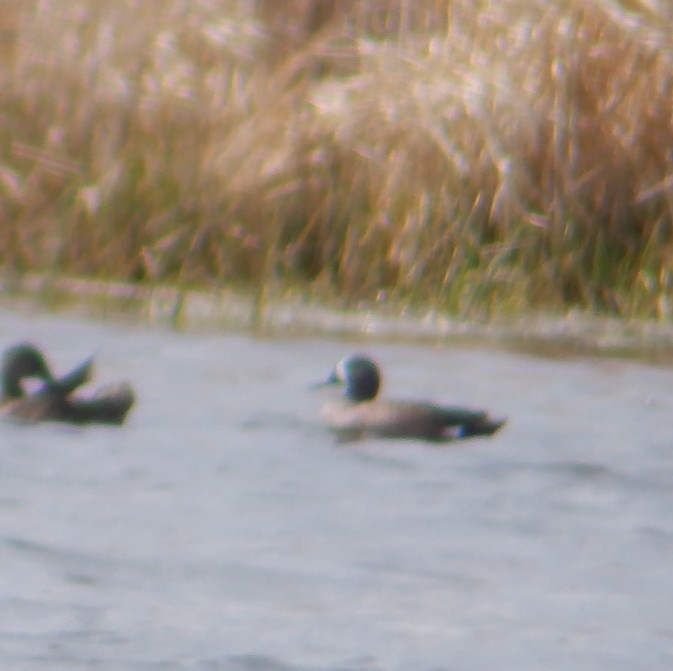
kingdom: Animalia
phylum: Chordata
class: Aves
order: Anseriformes
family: Anatidae
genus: Spatula
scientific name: Spatula discors
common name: Blue-winged teal
